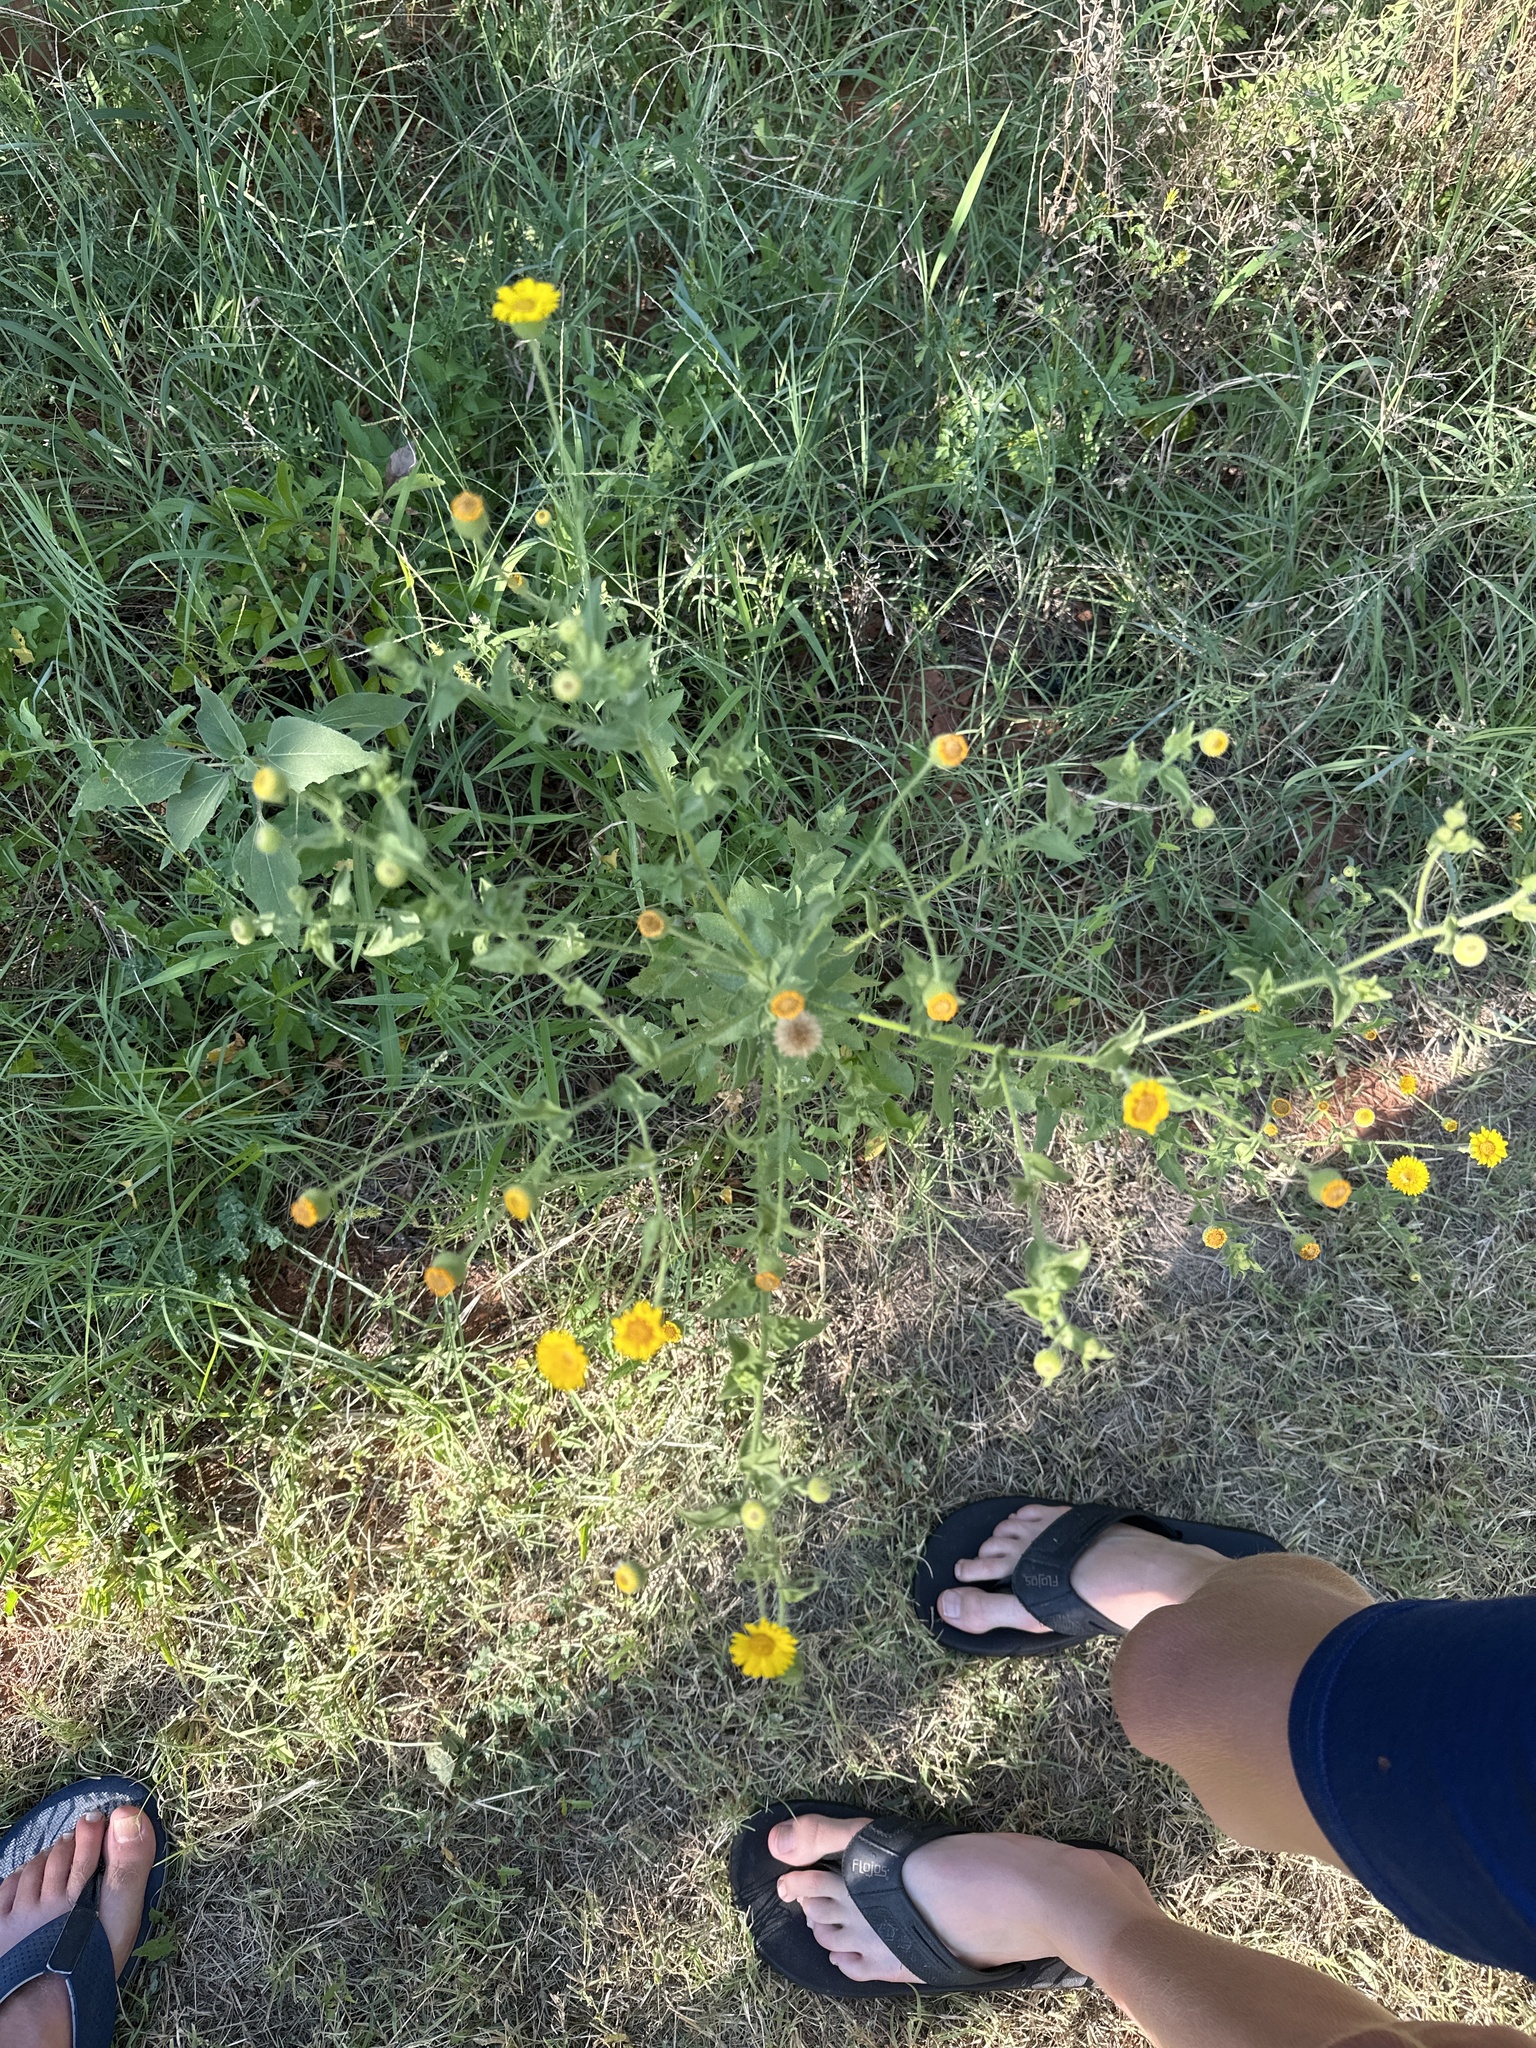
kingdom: Plantae
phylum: Tracheophyta
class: Magnoliopsida
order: Asterales
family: Asteraceae
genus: Heterotheca
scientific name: Heterotheca subaxillaris
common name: Camphorweed
